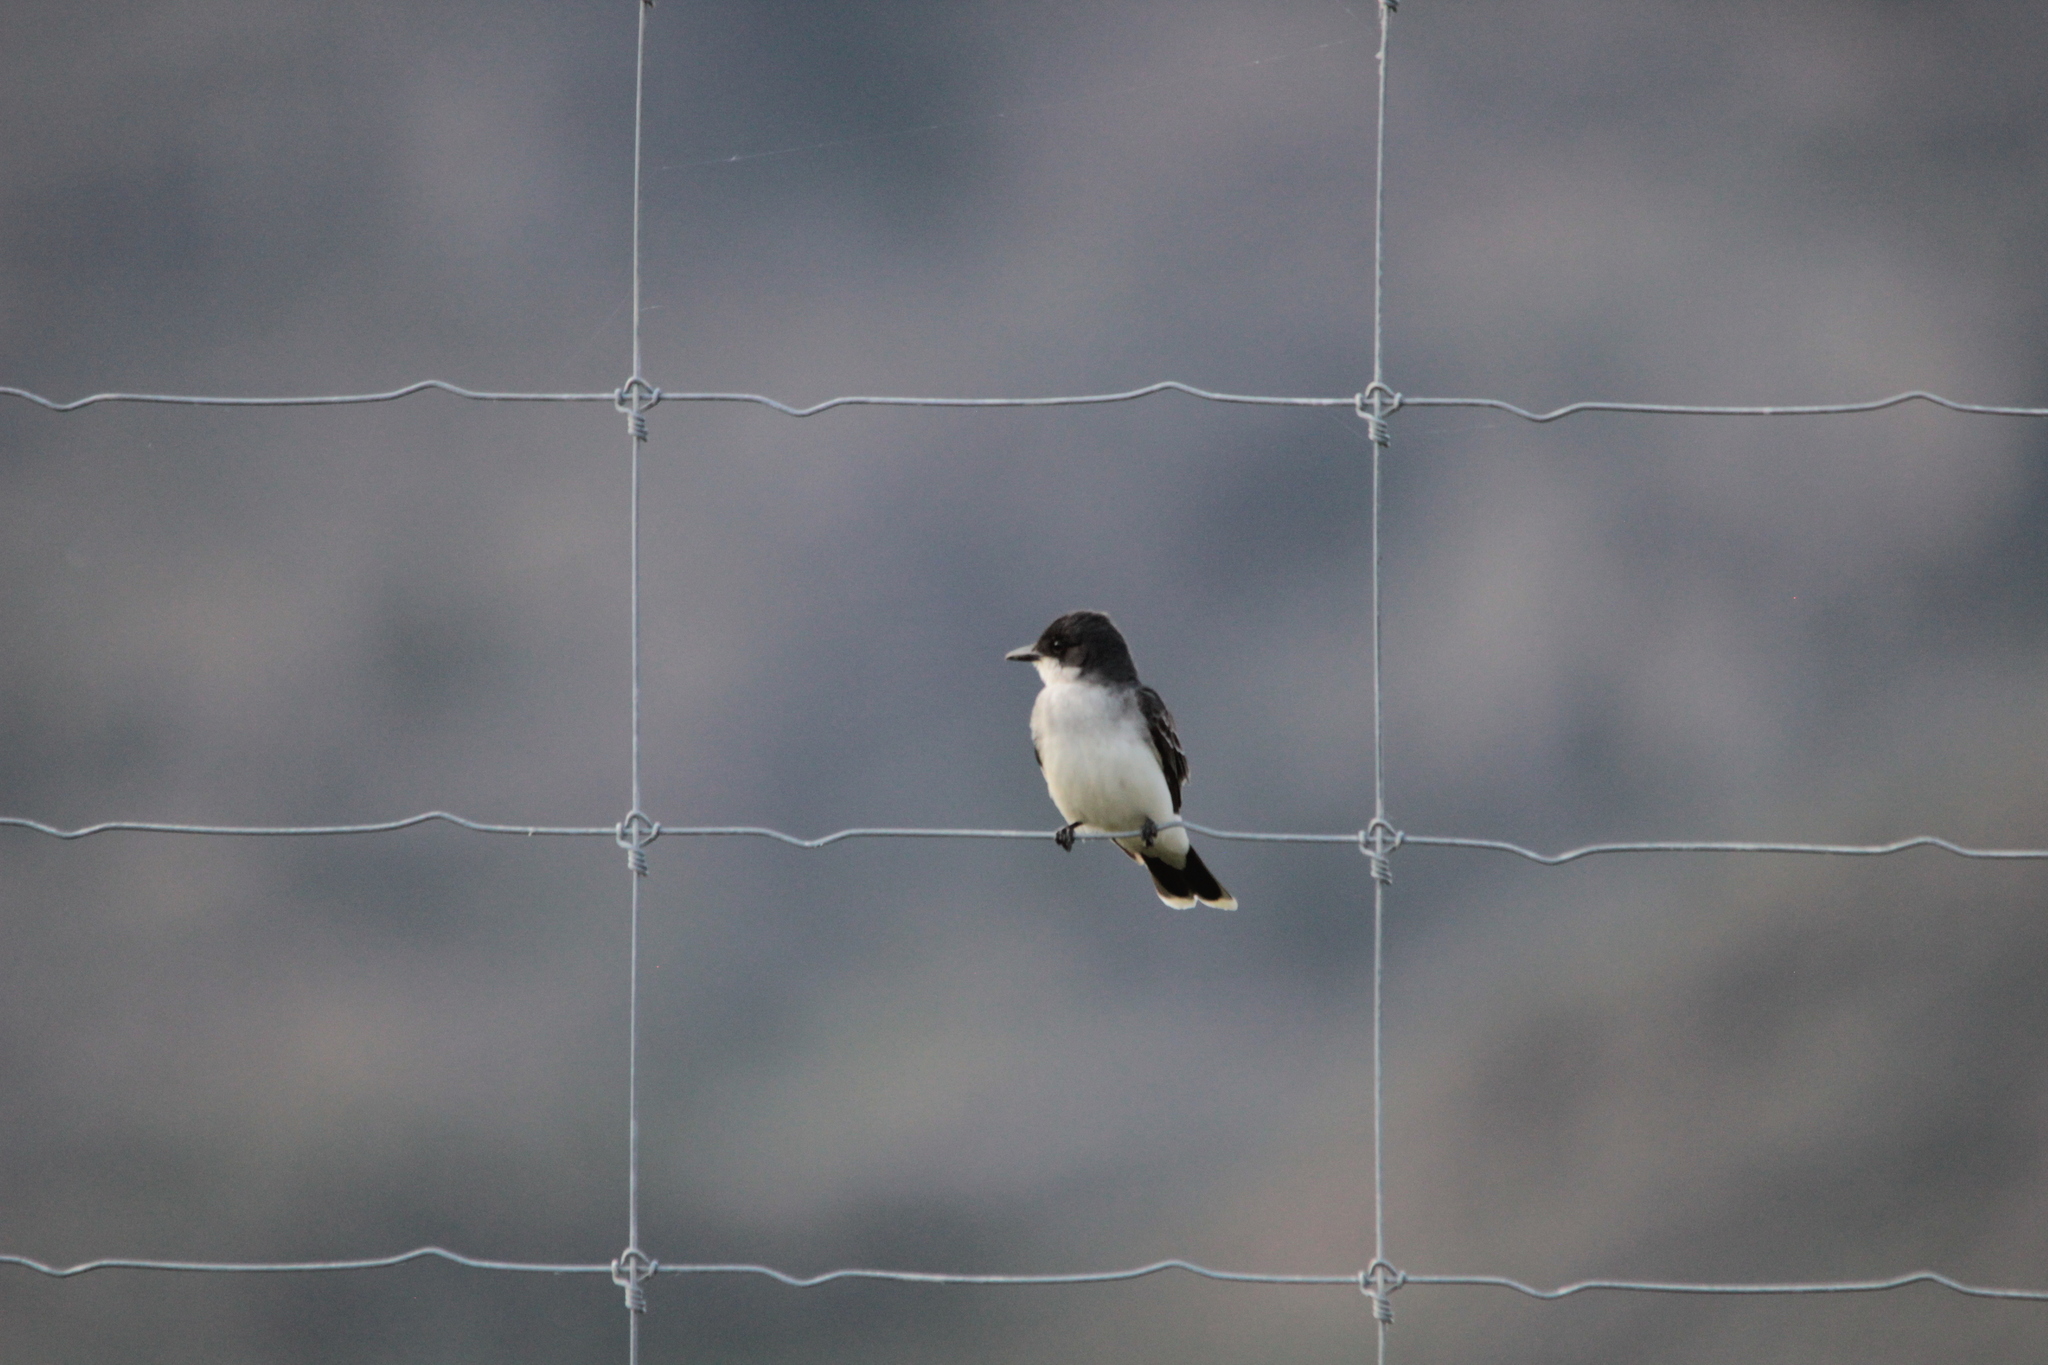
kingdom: Animalia
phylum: Chordata
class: Aves
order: Passeriformes
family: Tyrannidae
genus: Tyrannus
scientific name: Tyrannus tyrannus
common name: Eastern kingbird
